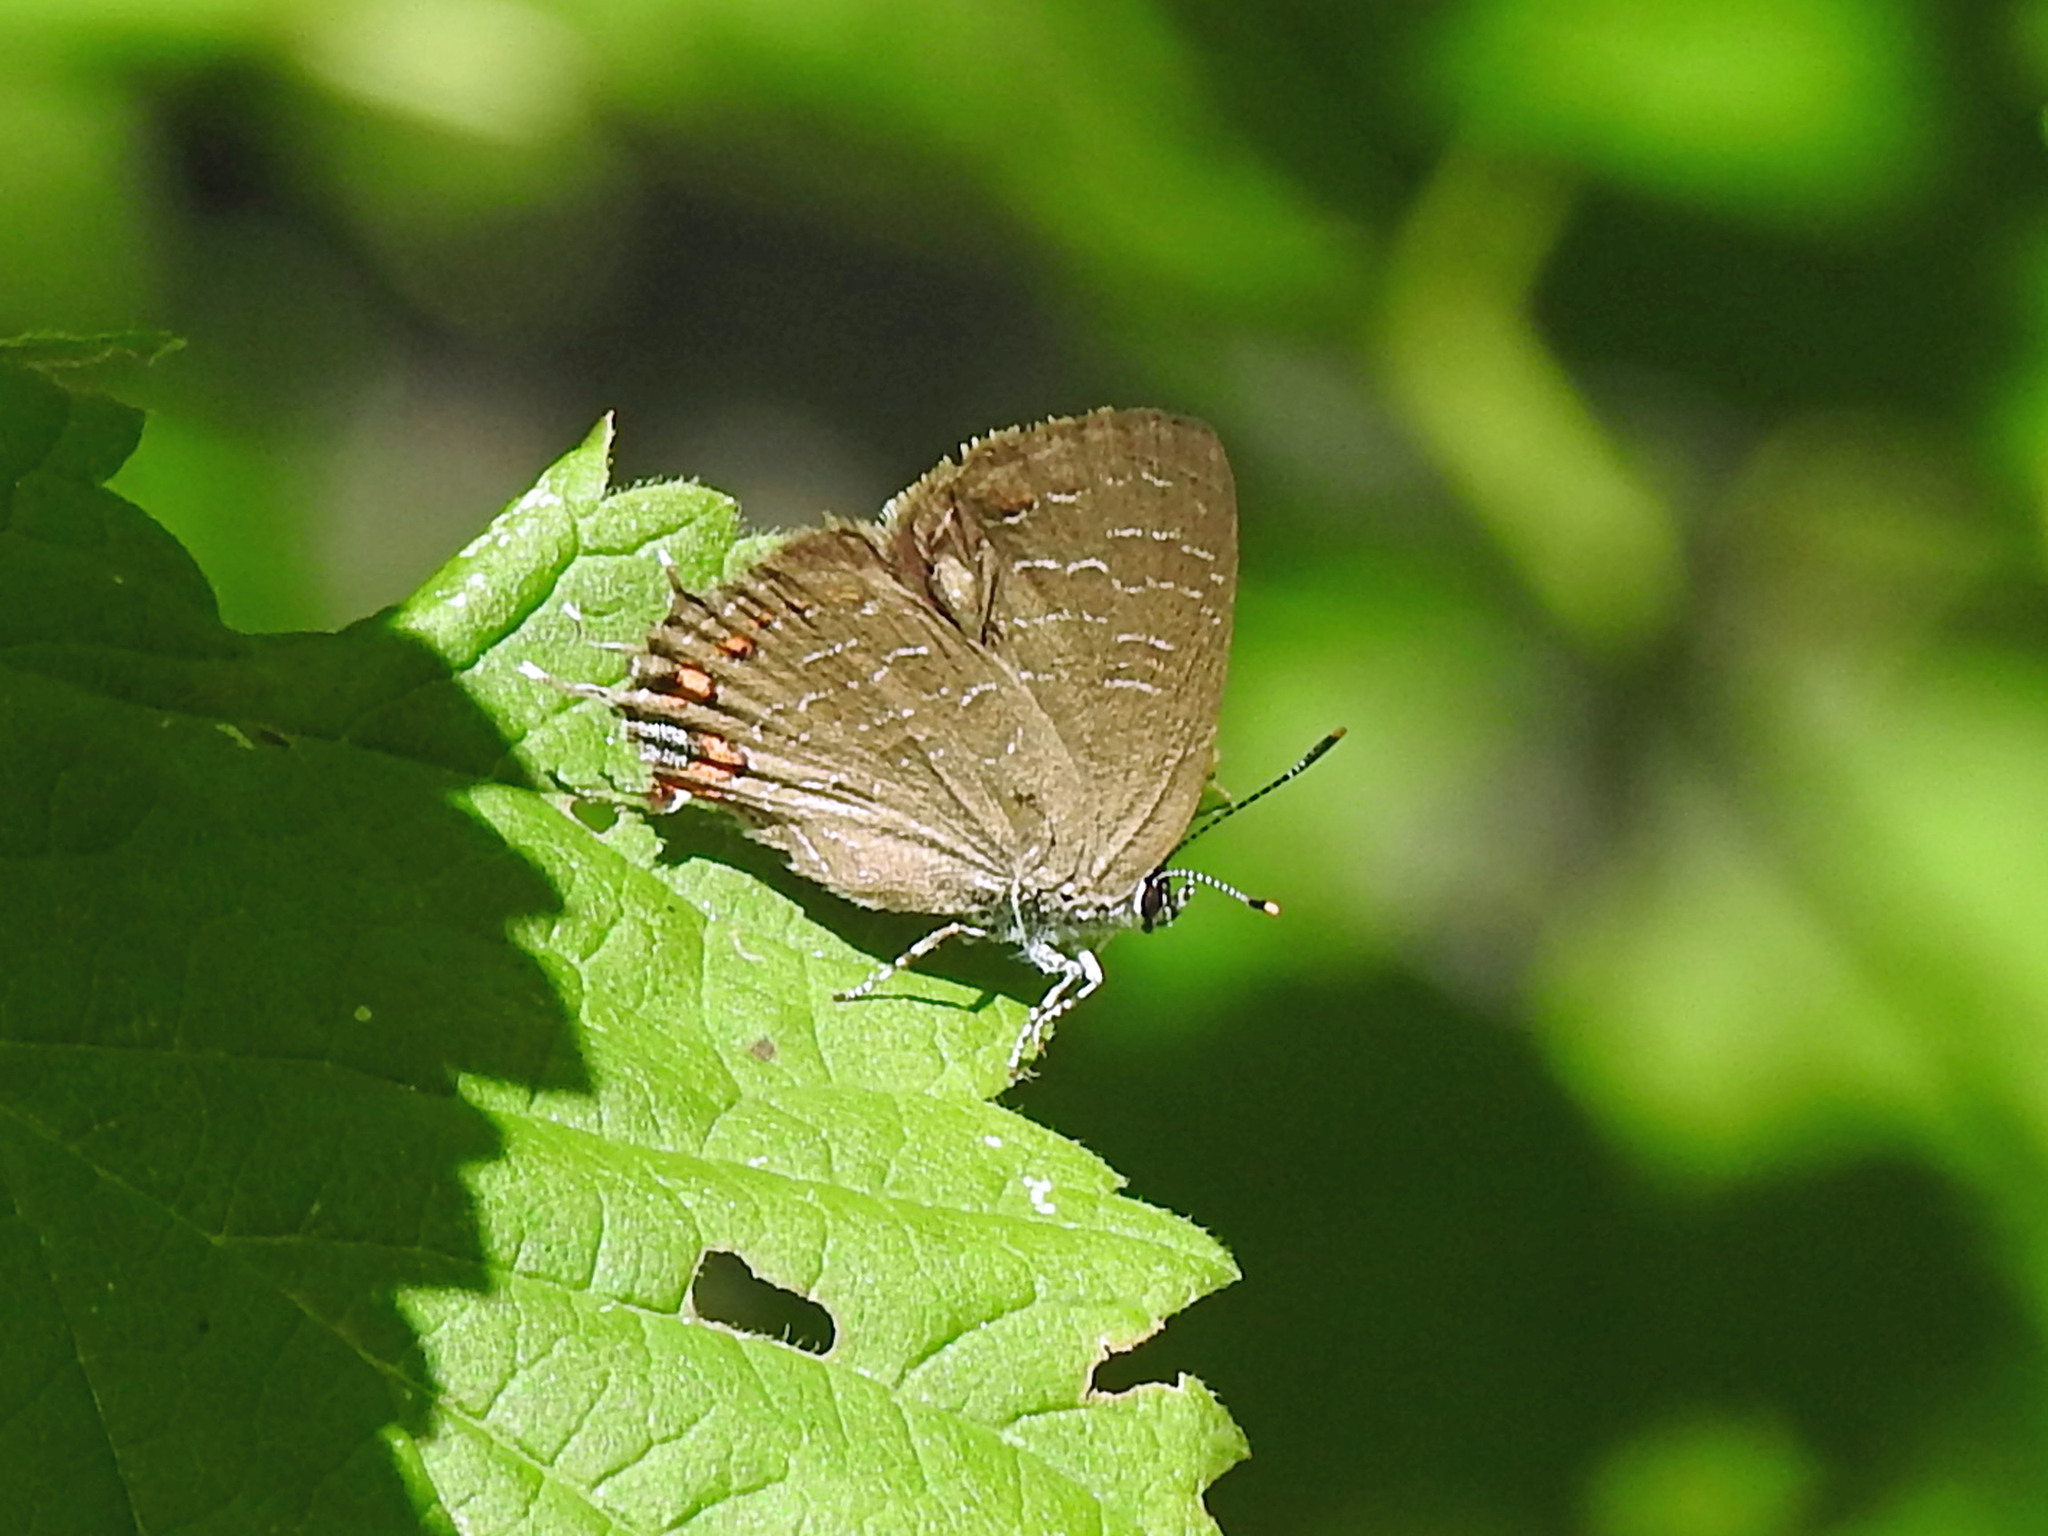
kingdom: Animalia
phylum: Arthropoda
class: Insecta
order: Lepidoptera
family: Lycaenidae
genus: Satyrium
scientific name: Satyrium liparops
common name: Striped hairstreak
